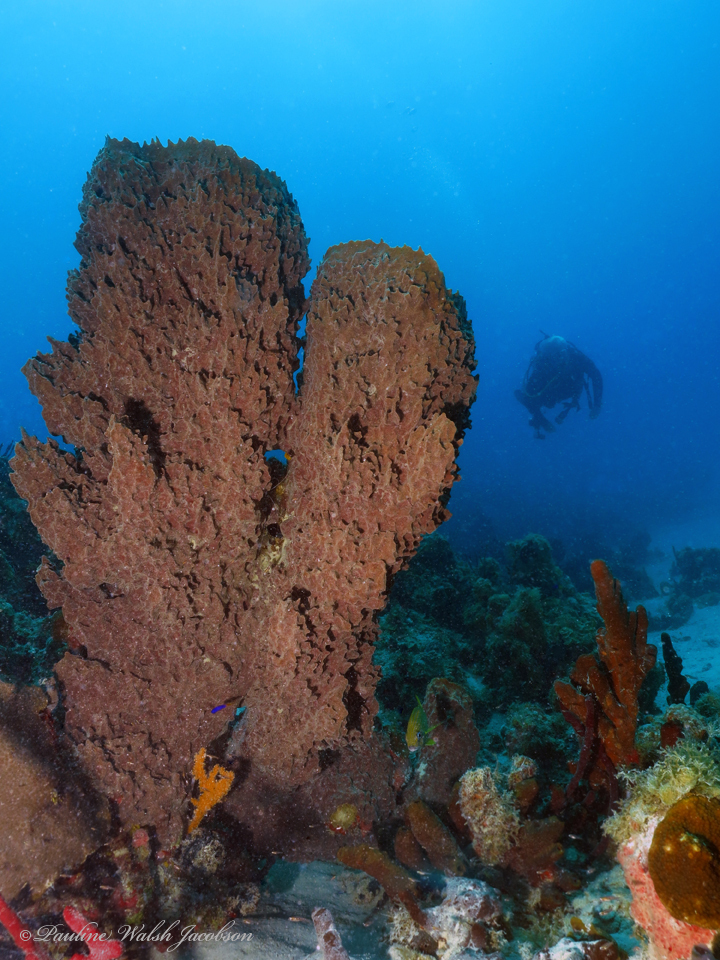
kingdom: Animalia
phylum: Porifera
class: Demospongiae
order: Haplosclerida
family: Petrosiidae
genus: Xestospongia
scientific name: Xestospongia muta
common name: Giant barrel sponge
